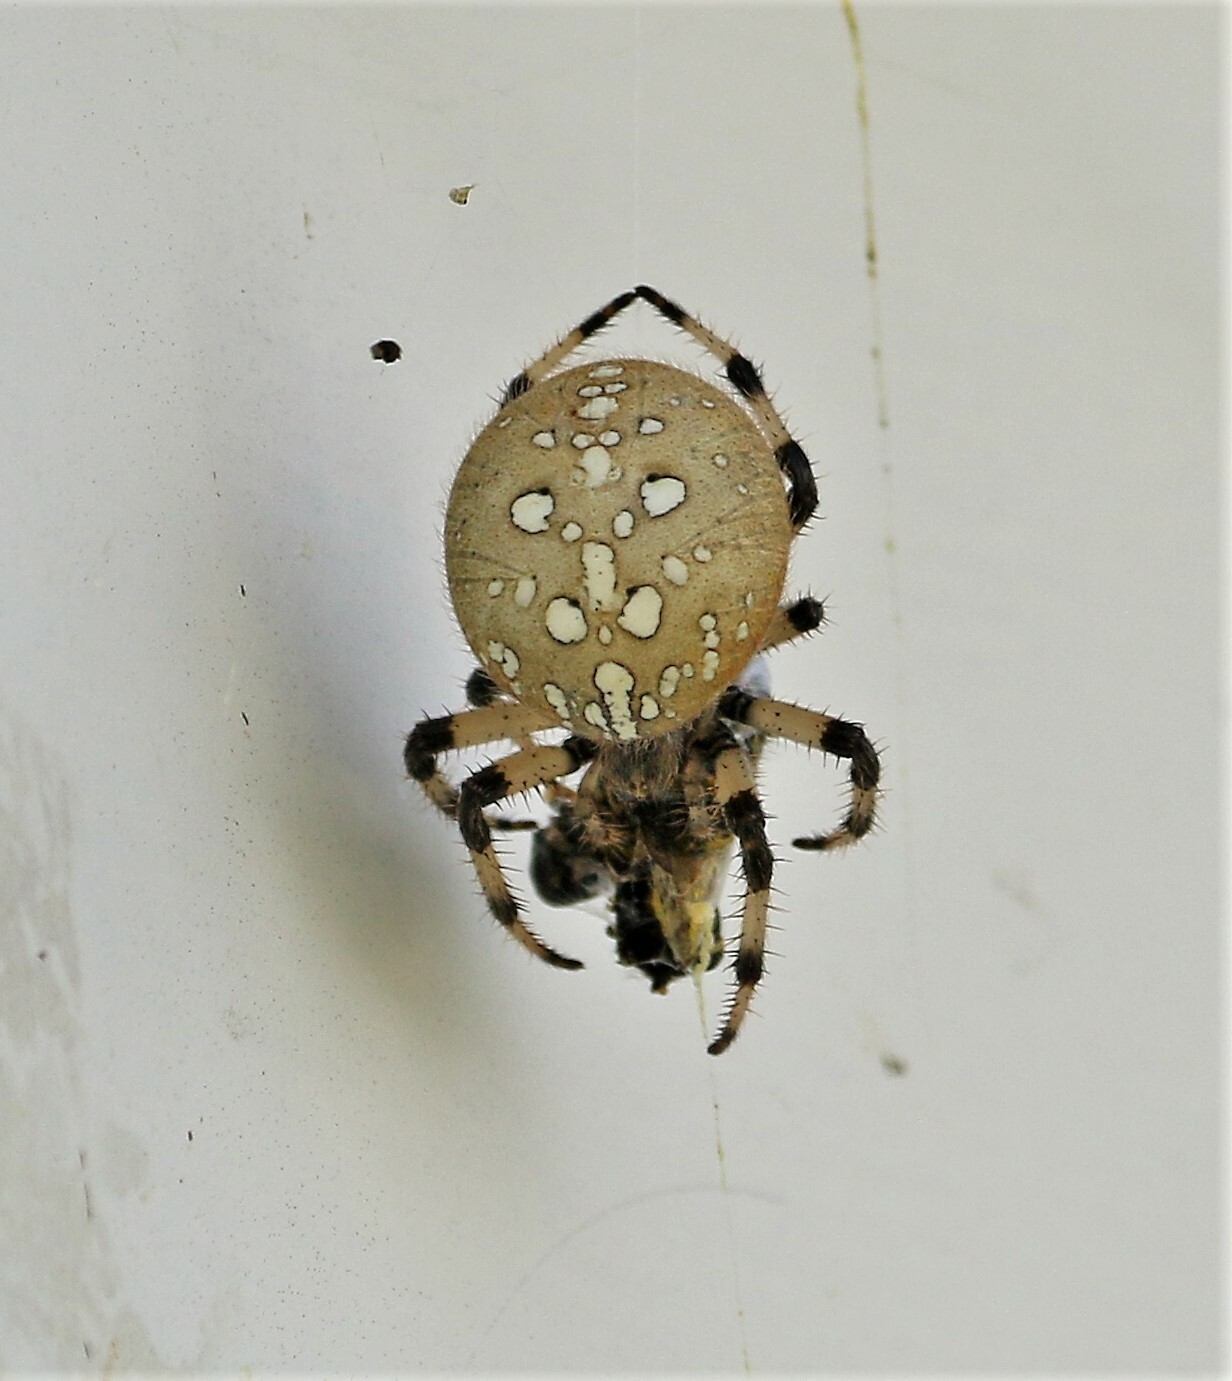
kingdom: Animalia
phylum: Arthropoda
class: Arachnida
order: Araneae
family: Araneidae
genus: Araneus
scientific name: Araneus trifolium
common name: Shamrock orbweaver
